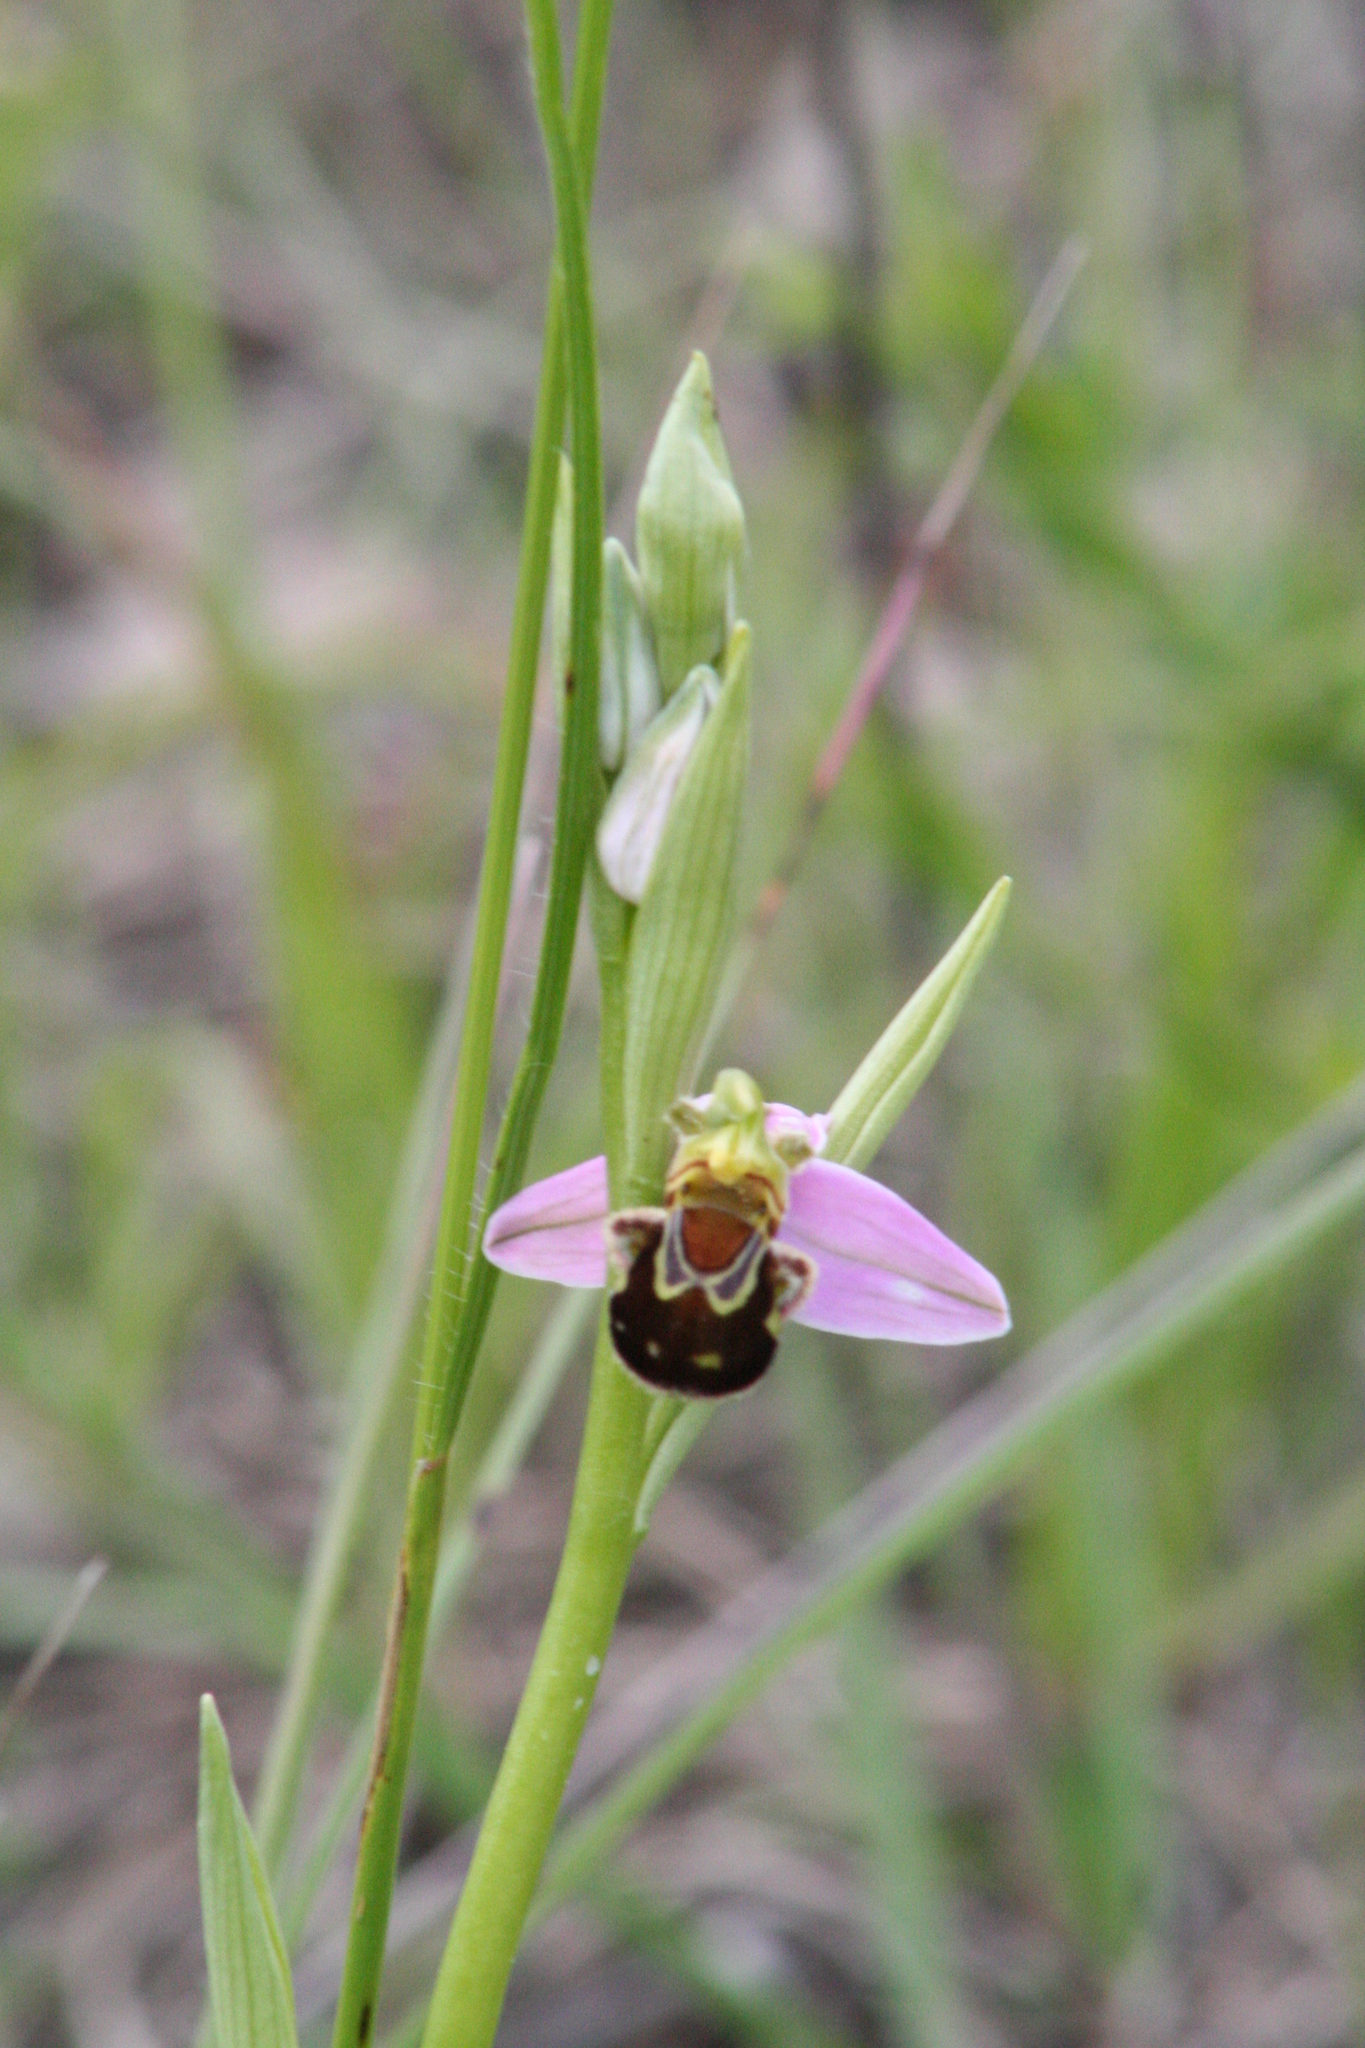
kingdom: Plantae
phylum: Tracheophyta
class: Liliopsida
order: Asparagales
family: Orchidaceae
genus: Ophrys
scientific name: Ophrys apifera
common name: Bee orchid
